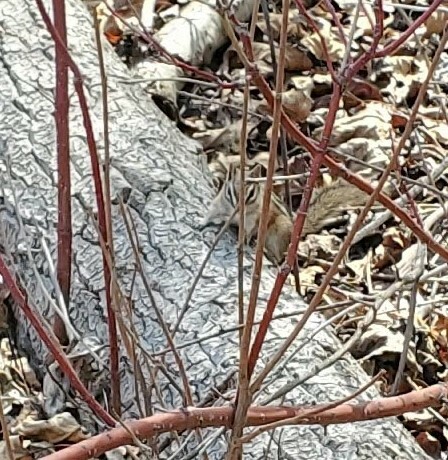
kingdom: Animalia
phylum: Chordata
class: Mammalia
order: Rodentia
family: Sciuridae
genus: Tamias
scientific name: Tamias minimus
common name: Least chipmunk
